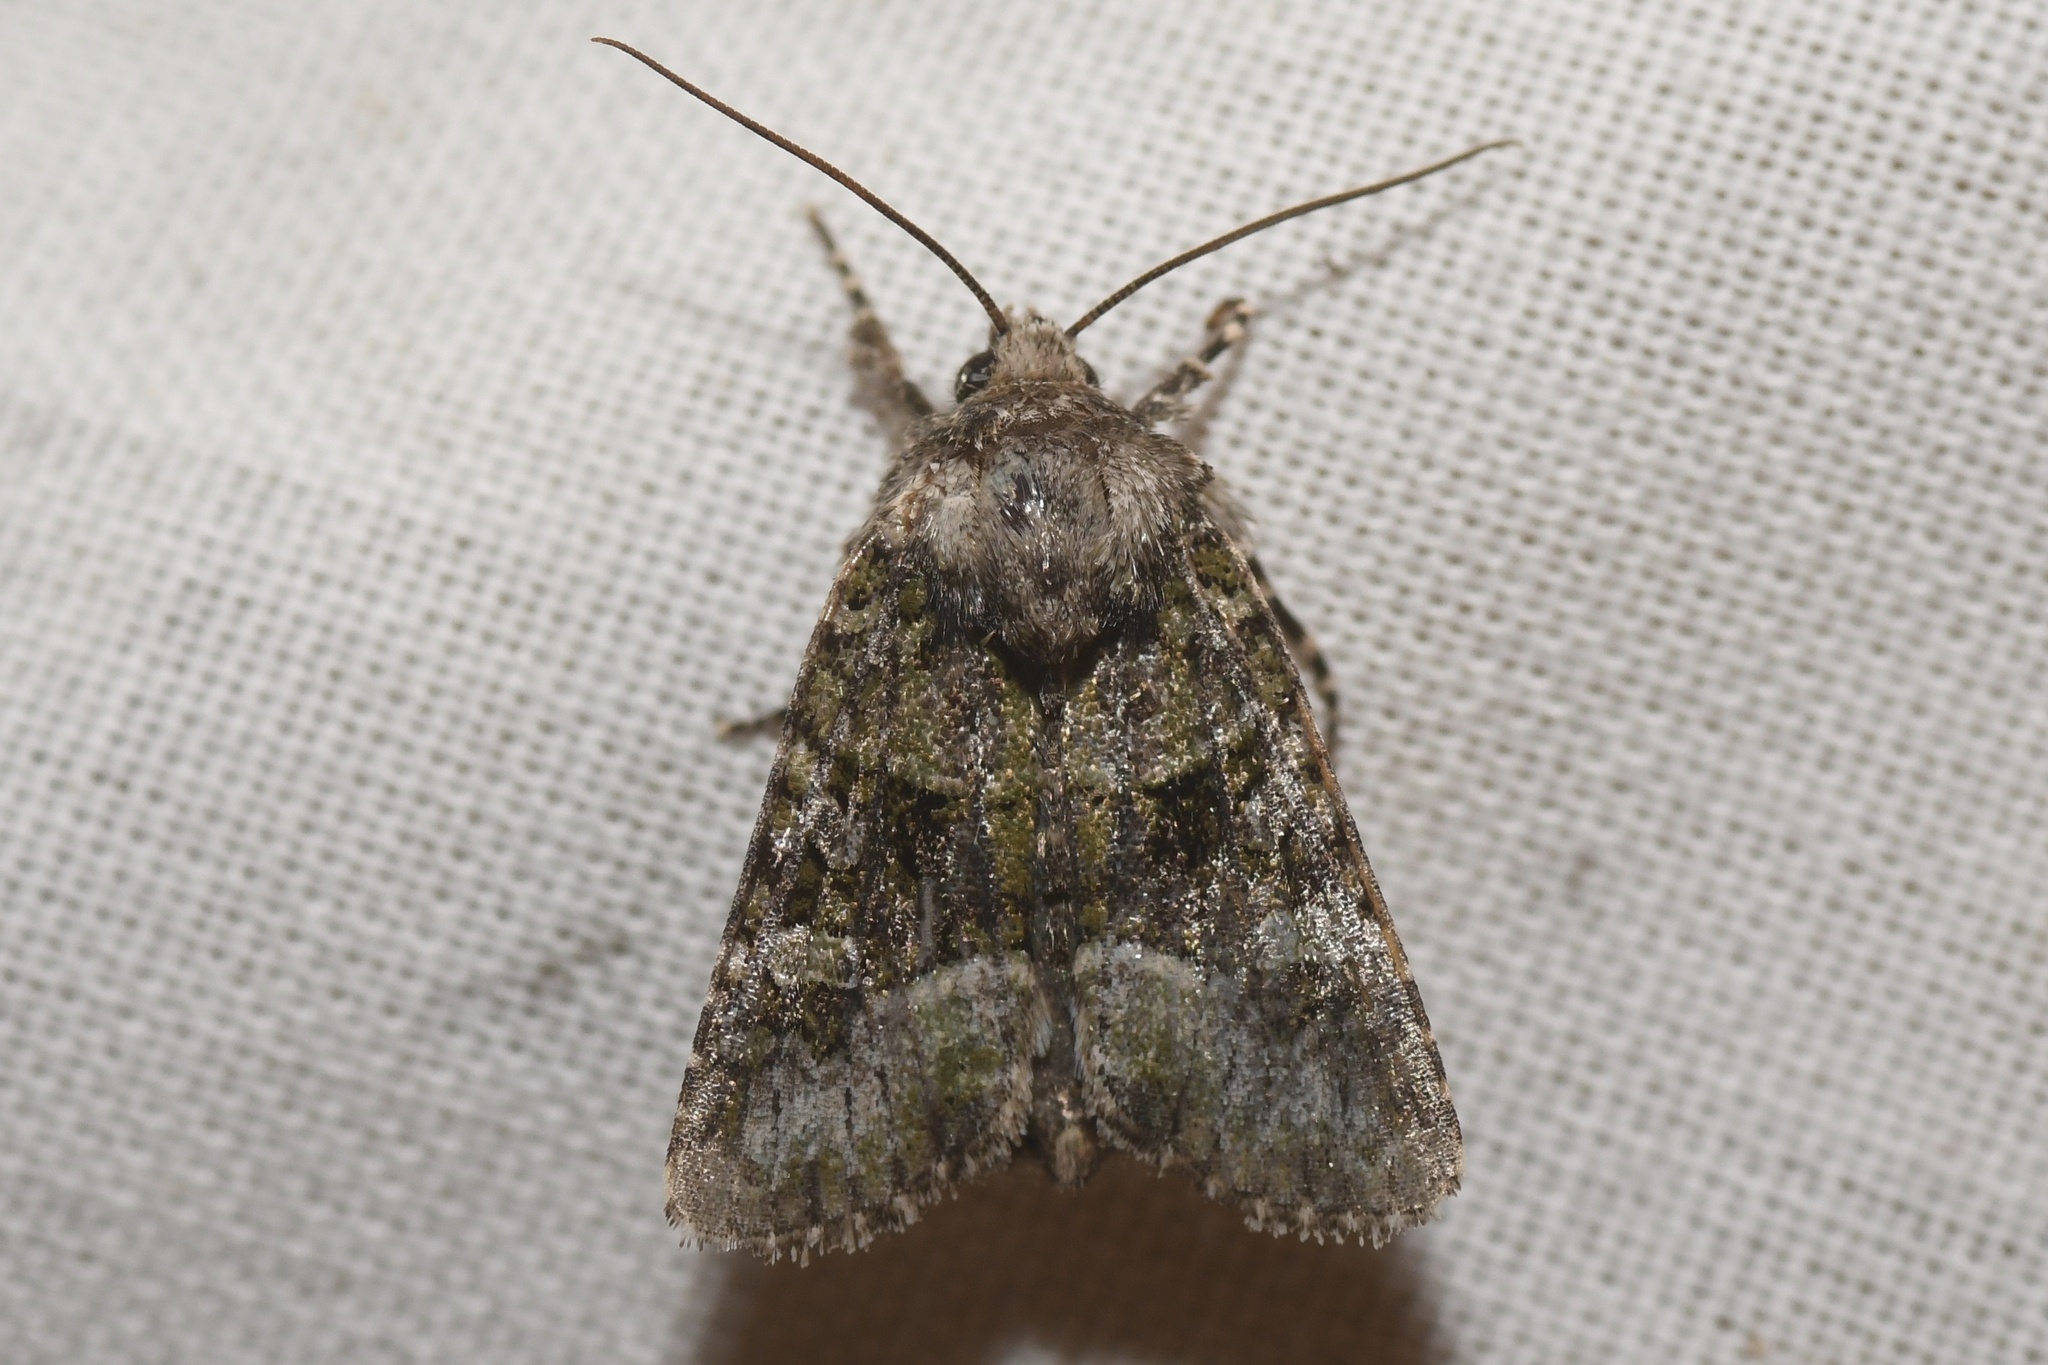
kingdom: Animalia
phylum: Arthropoda
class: Insecta
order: Lepidoptera
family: Noctuidae
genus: Lacinipolia
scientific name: Lacinipolia olivacea
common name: Olive arches moth
